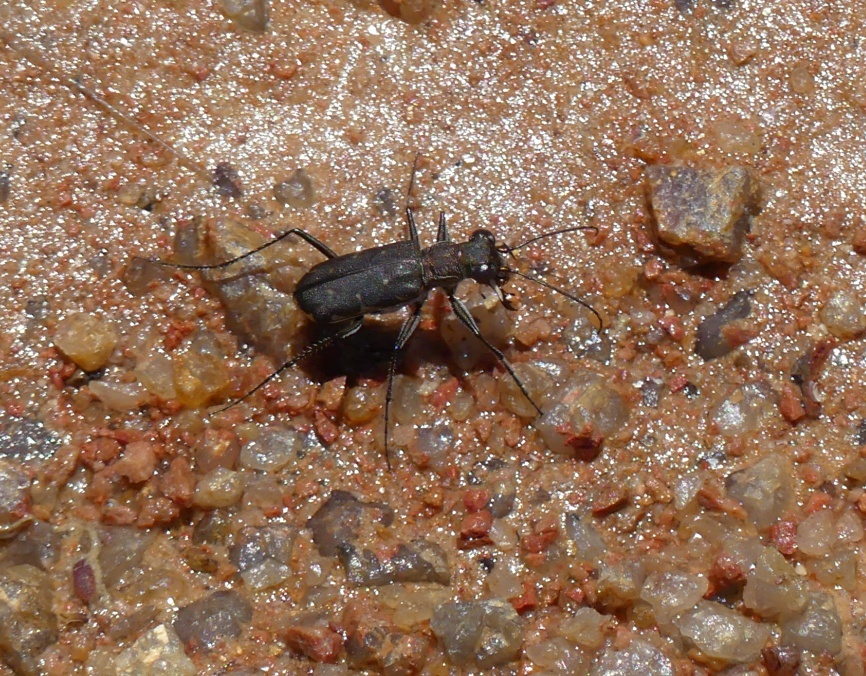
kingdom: Animalia
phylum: Arthropoda
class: Insecta
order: Coleoptera
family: Carabidae
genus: Myriochila
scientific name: Myriochila melancholica
